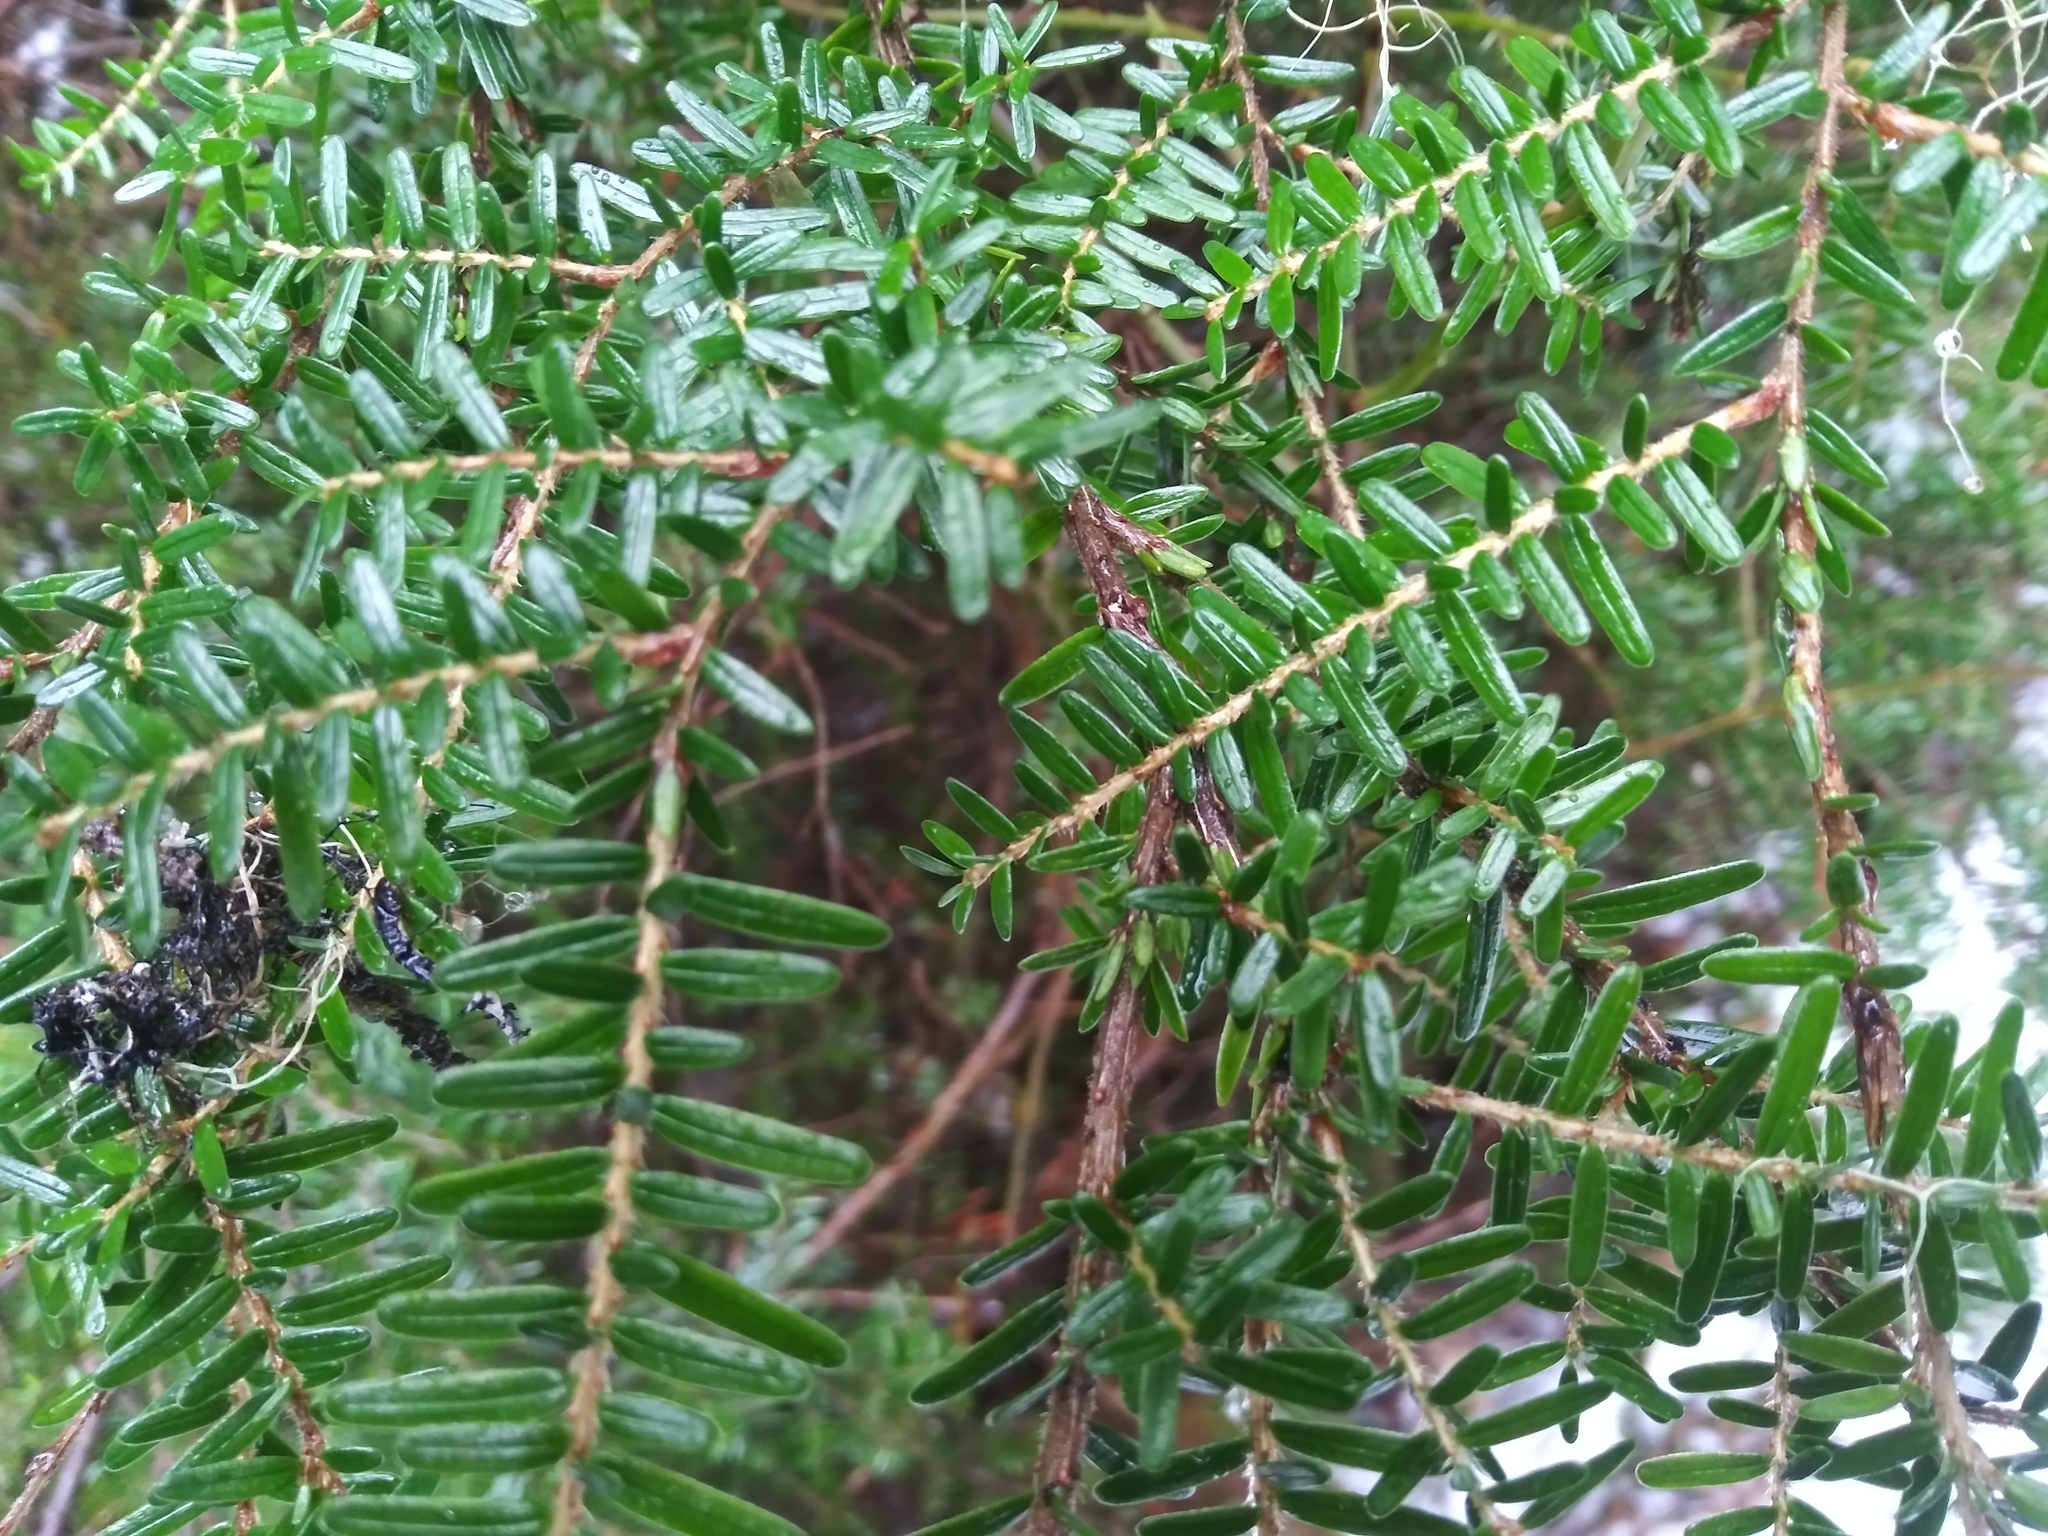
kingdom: Plantae
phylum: Tracheophyta
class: Pinopsida
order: Pinales
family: Pinaceae
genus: Tsuga
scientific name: Tsuga heterophylla
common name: Western hemlock
